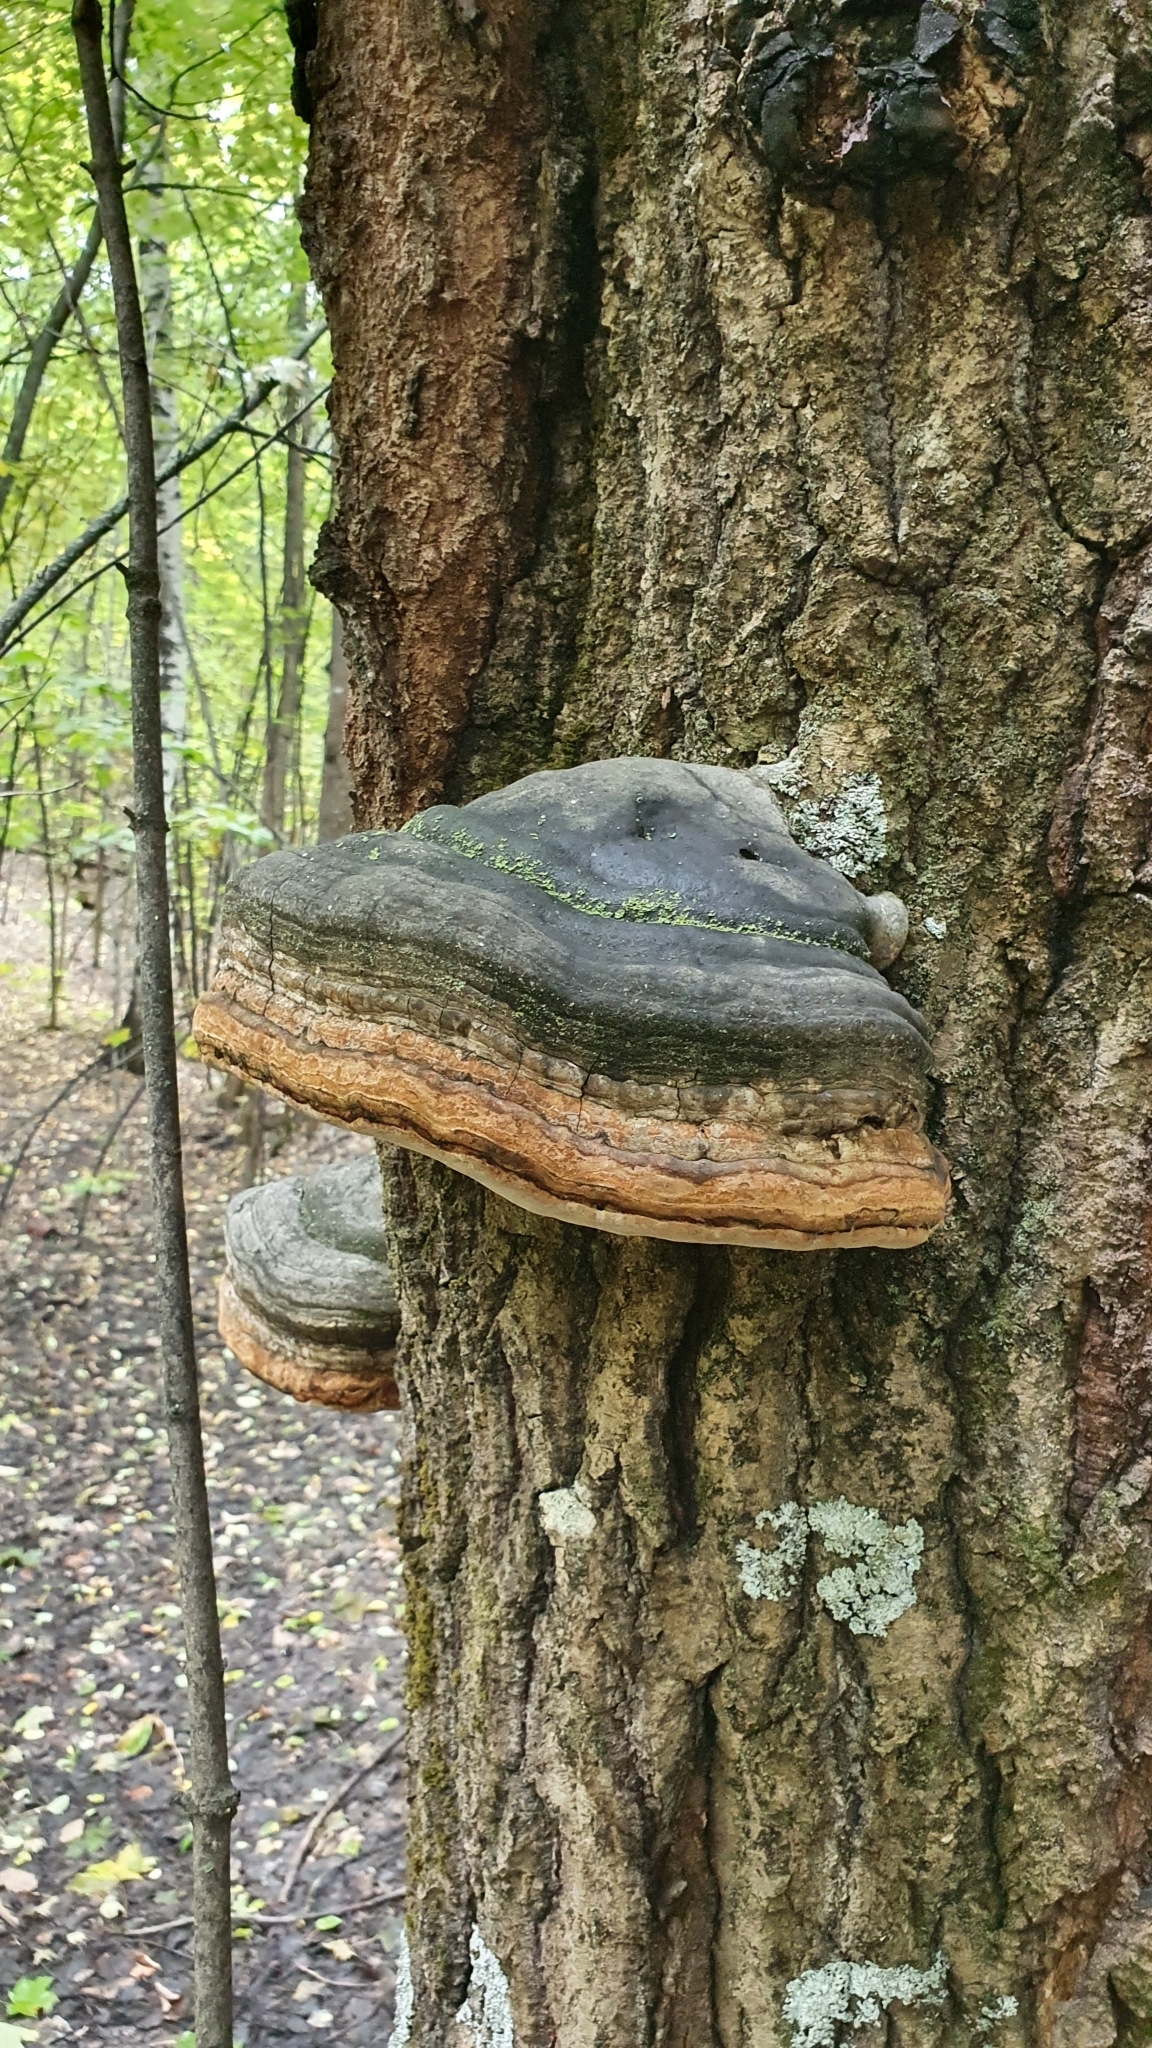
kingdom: Fungi
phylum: Basidiomycota
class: Agaricomycetes
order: Polyporales
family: Polyporaceae
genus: Fomes
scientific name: Fomes fomentarius
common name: Hoof fungus
